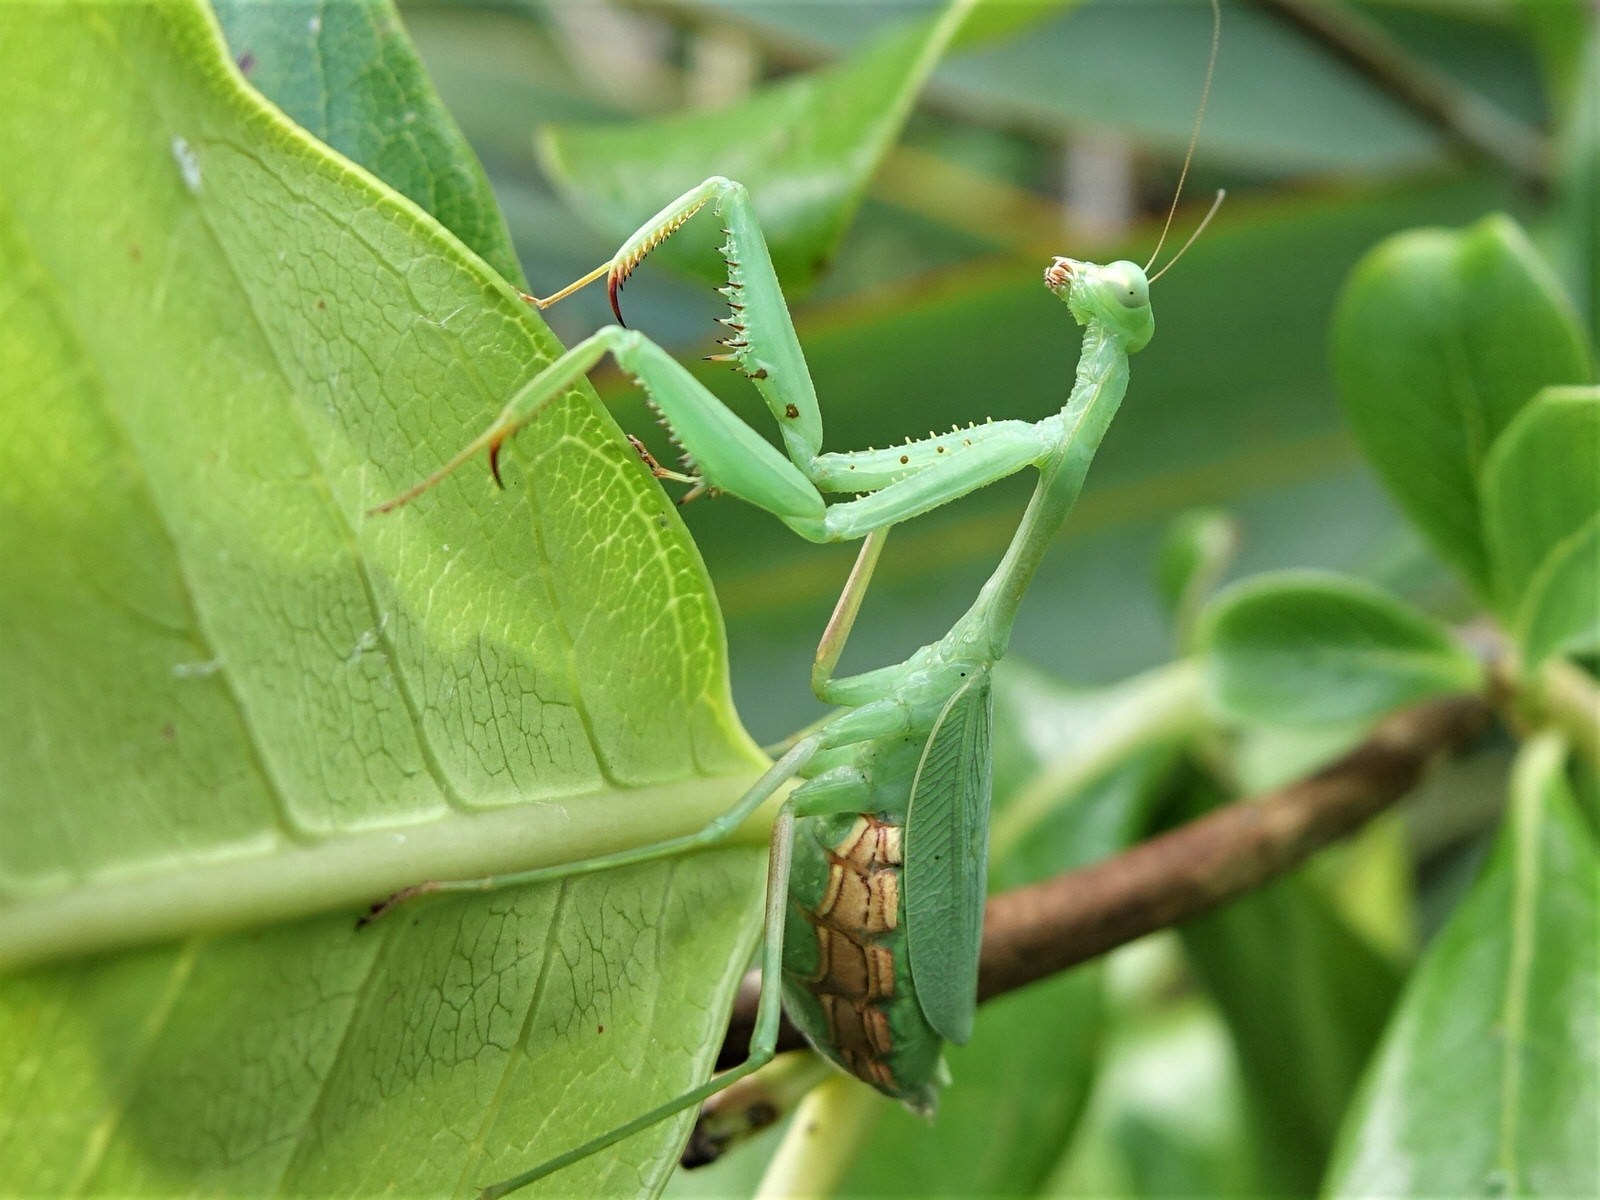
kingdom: Animalia
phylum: Arthropoda
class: Insecta
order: Mantodea
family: Miomantidae
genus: Miomantis
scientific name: Miomantis caffra
